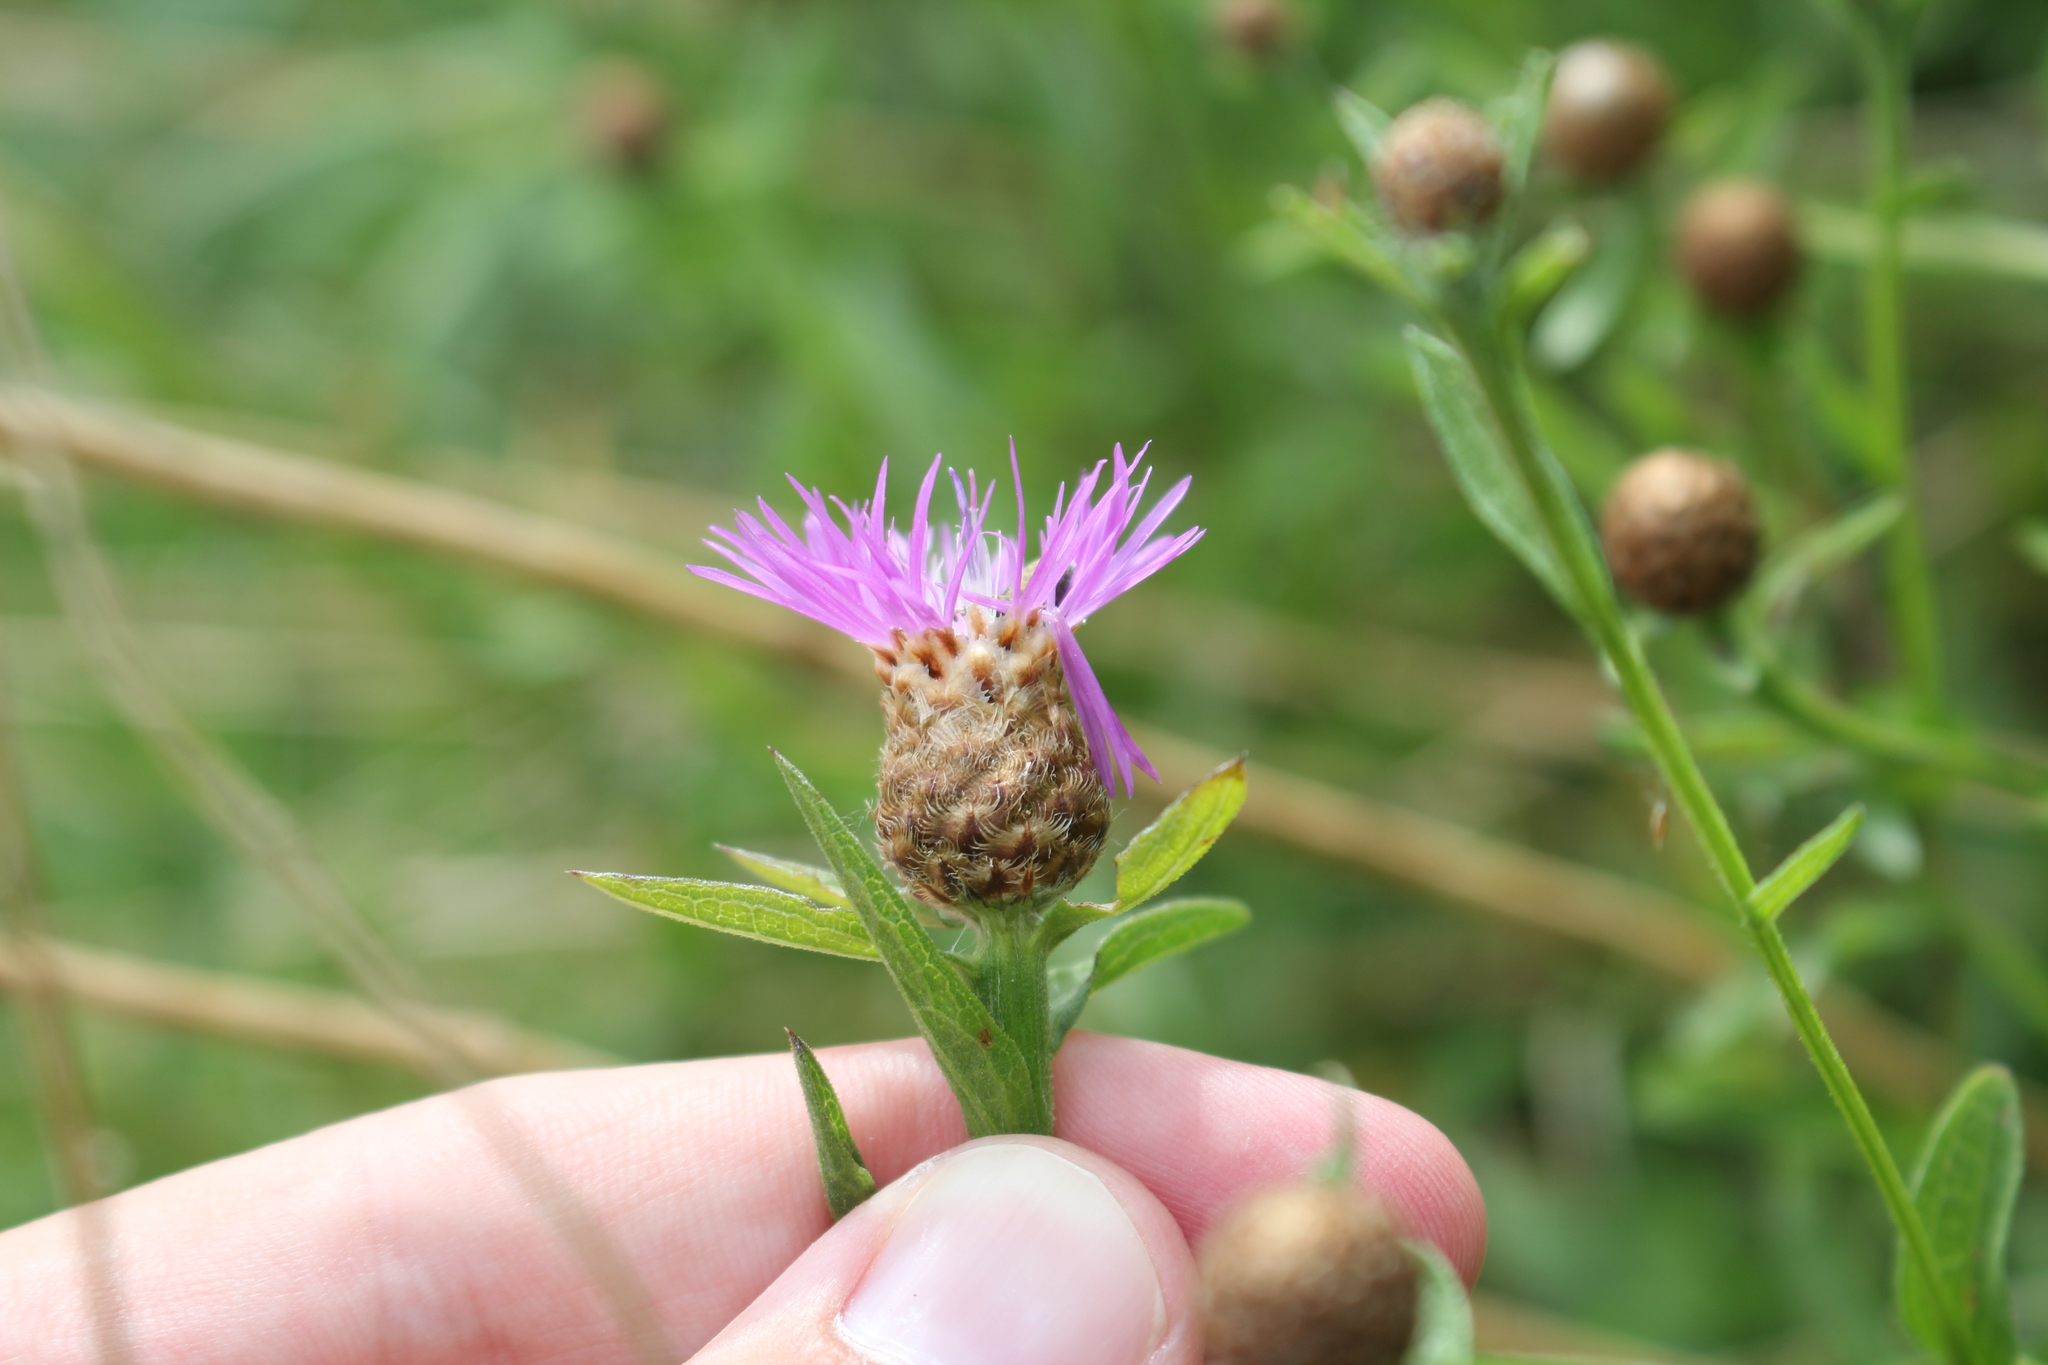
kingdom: Plantae
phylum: Tracheophyta
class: Magnoliopsida
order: Asterales
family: Asteraceae
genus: Centaurea
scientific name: Centaurea moncktonii
